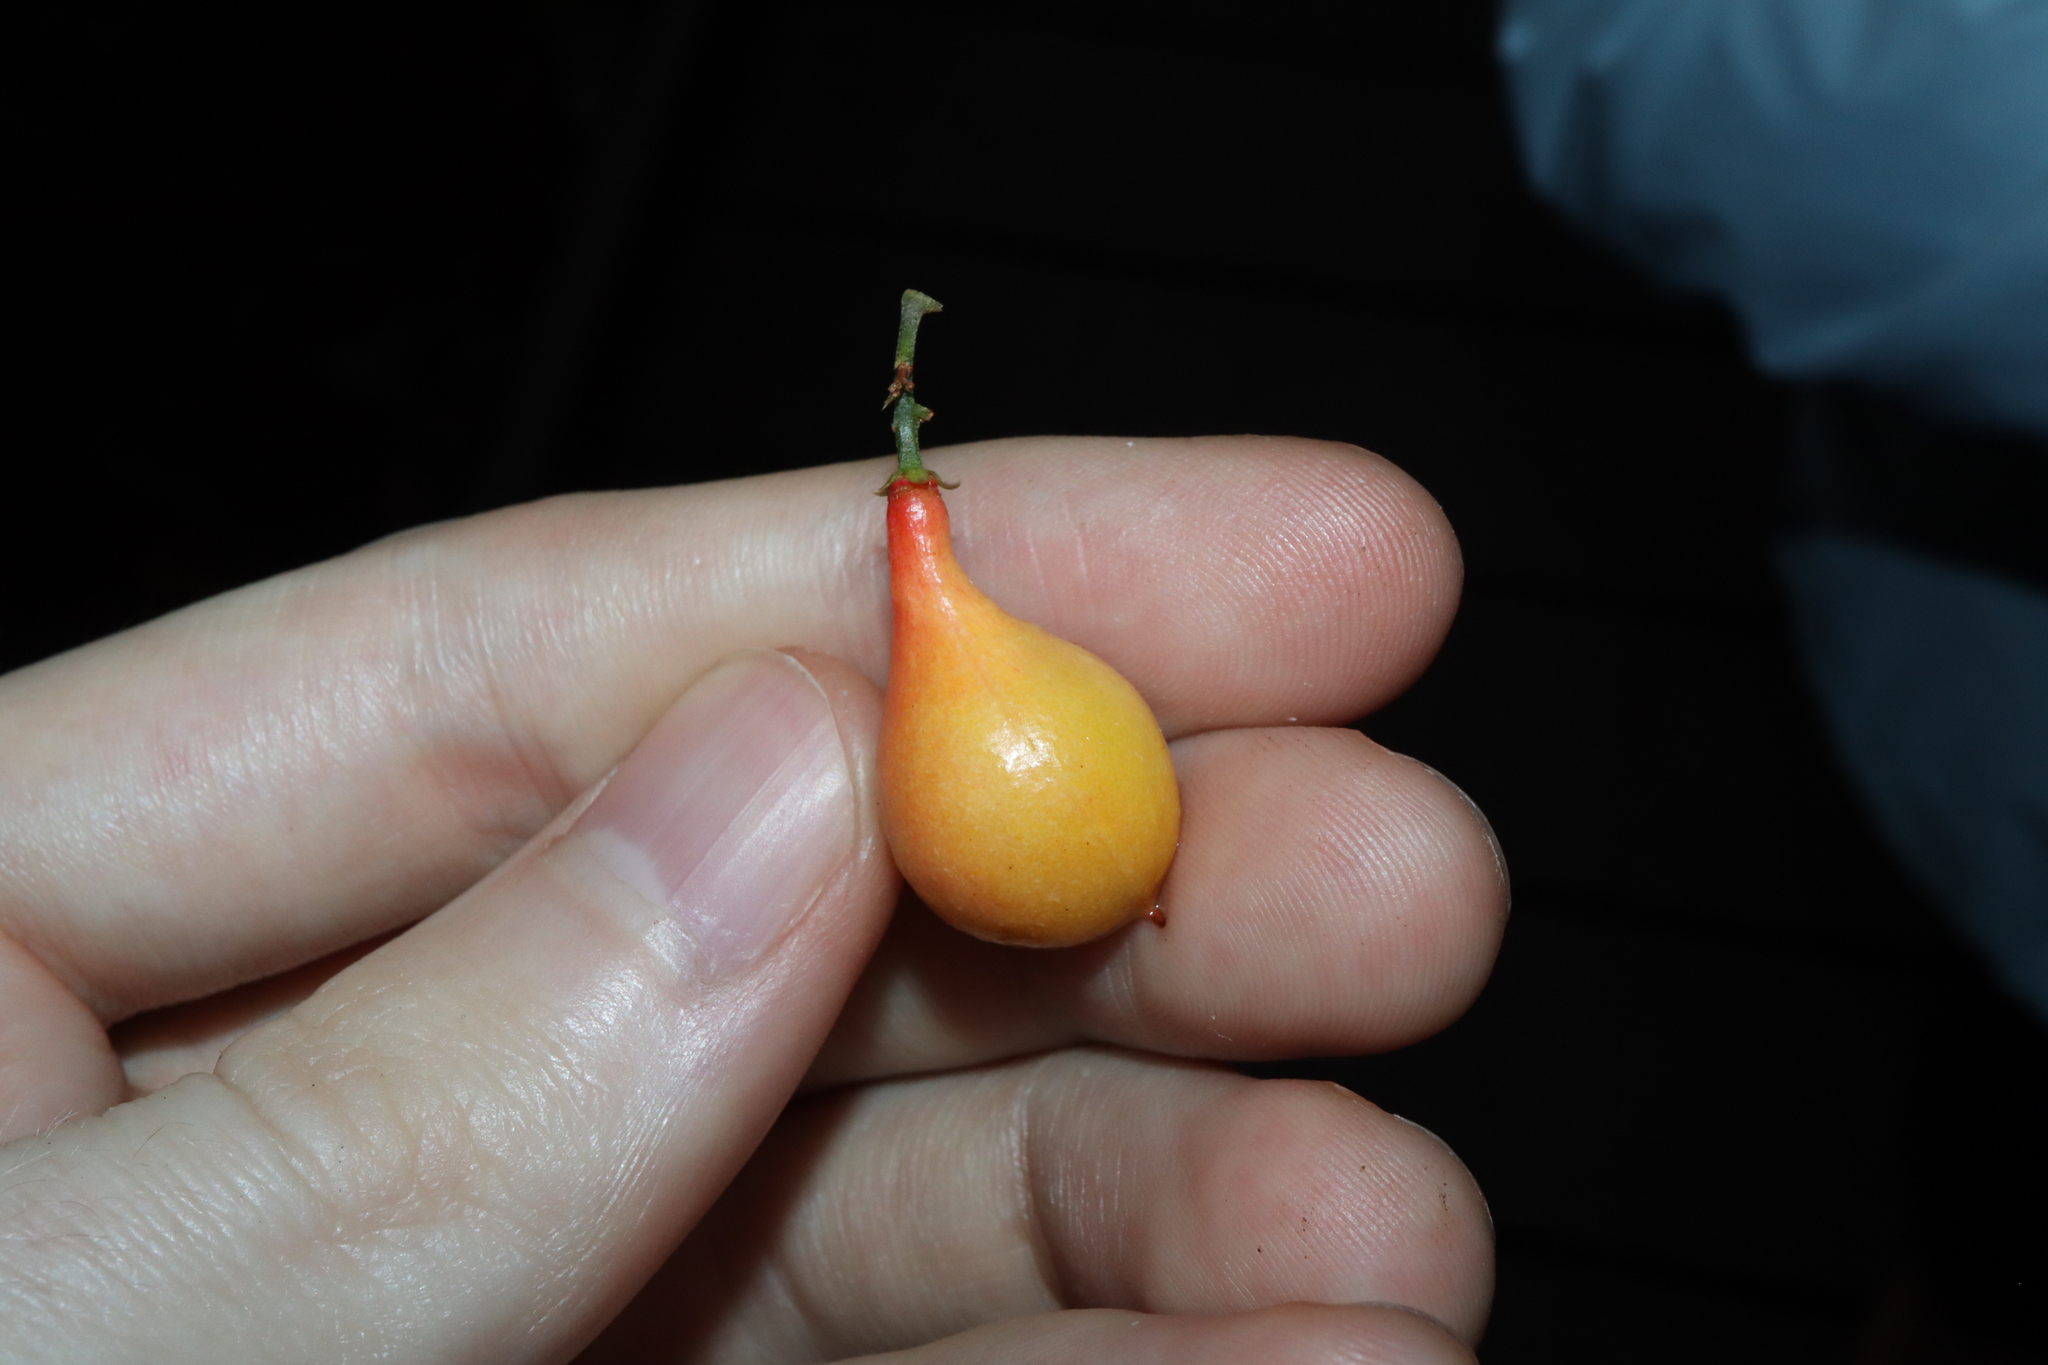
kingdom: Plantae
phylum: Tracheophyta
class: Magnoliopsida
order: Sapindales
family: Sapindaceae
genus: Mischocarpus
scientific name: Mischocarpus exangulatus
